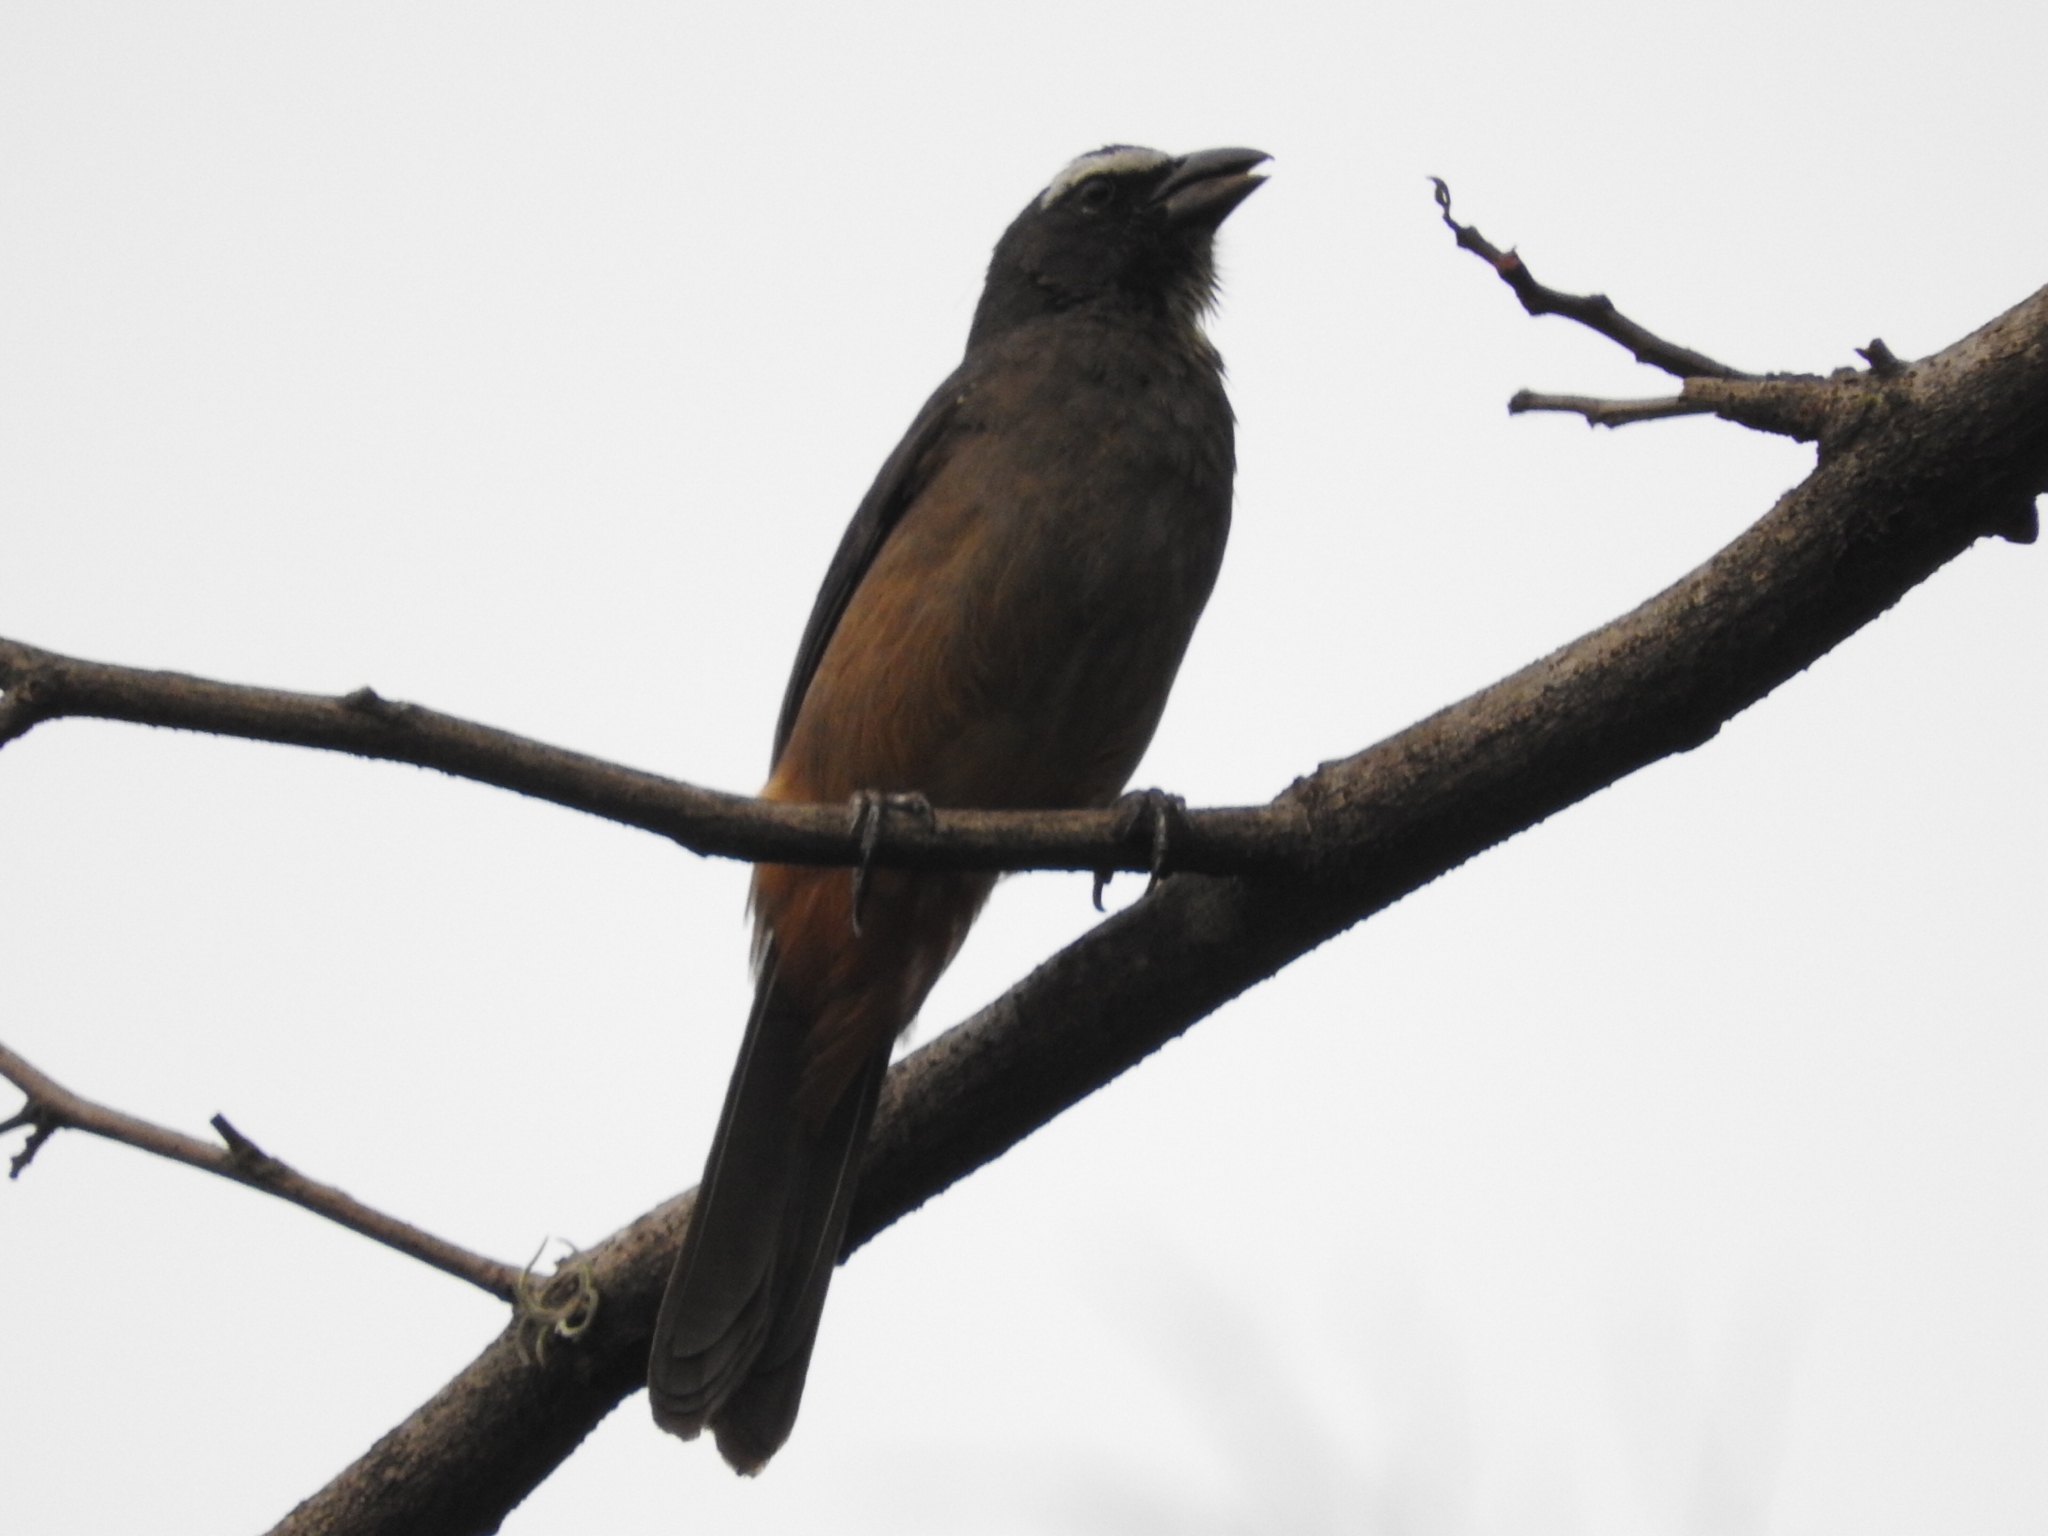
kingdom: Animalia
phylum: Chordata
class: Aves
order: Passeriformes
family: Thraupidae
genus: Saltator
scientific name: Saltator grandis
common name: Cinnamon-bellied saltator
